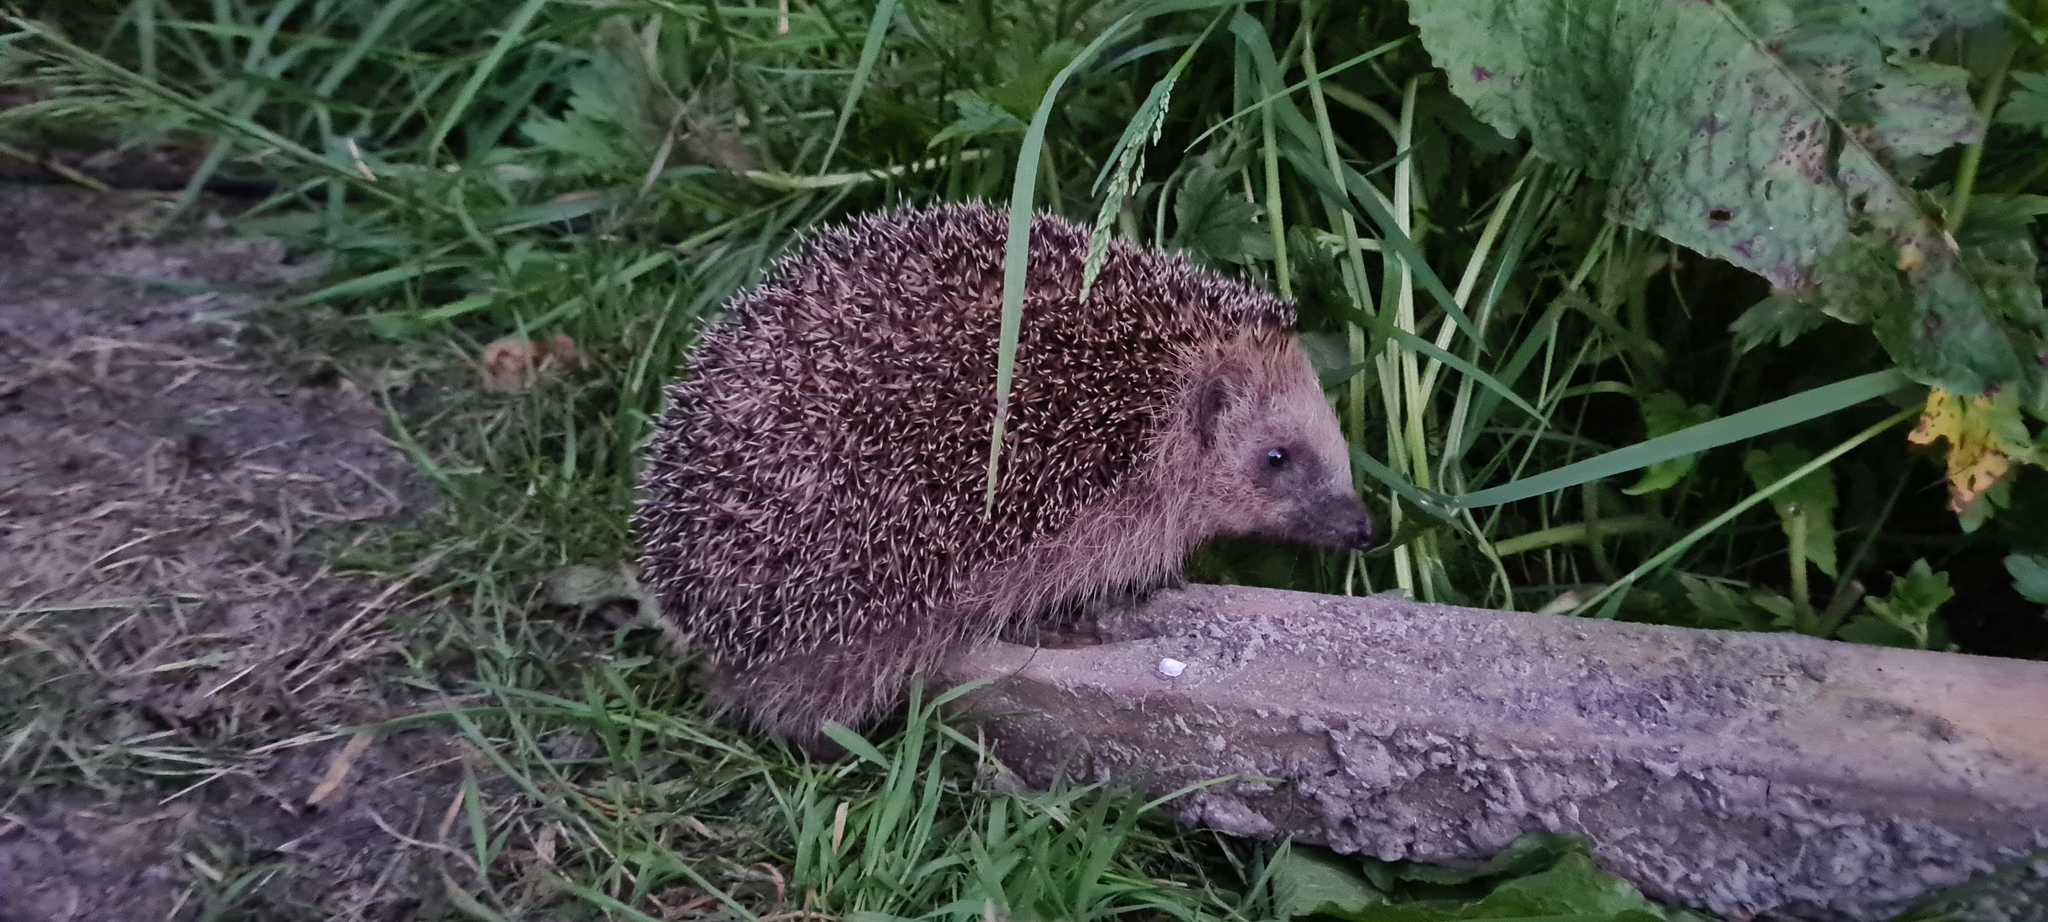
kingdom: Animalia
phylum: Chordata
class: Mammalia
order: Erinaceomorpha
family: Erinaceidae
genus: Erinaceus
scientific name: Erinaceus europaeus
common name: West european hedgehog
